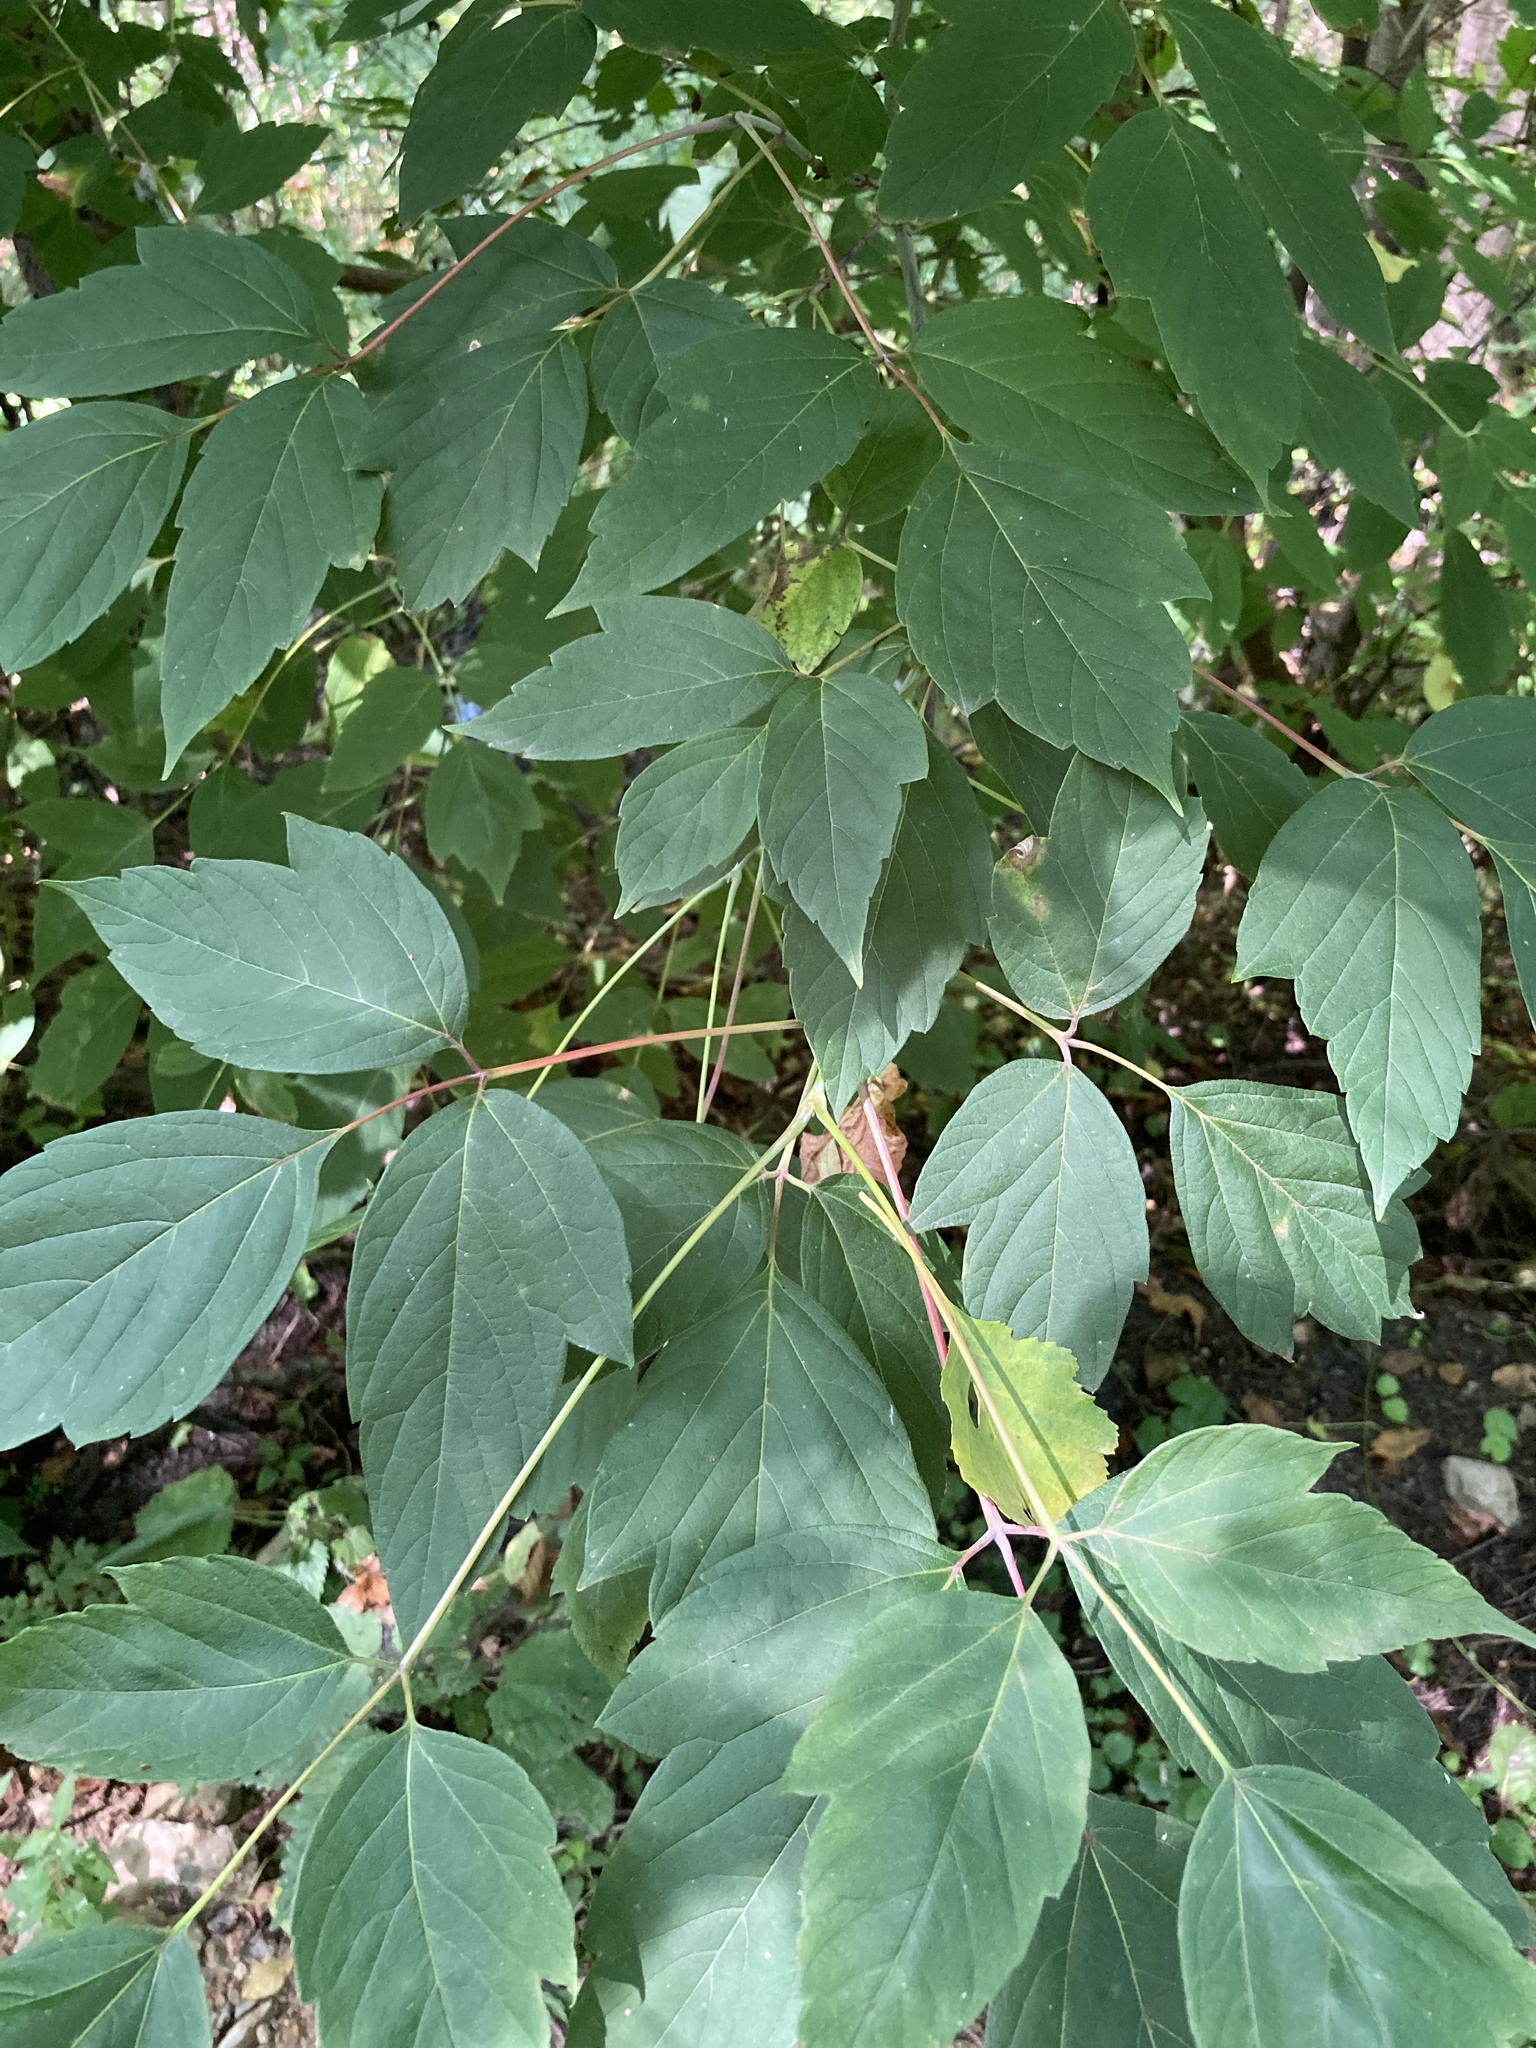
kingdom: Plantae
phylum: Tracheophyta
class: Magnoliopsida
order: Sapindales
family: Sapindaceae
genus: Acer
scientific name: Acer negundo
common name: Ashleaf maple
